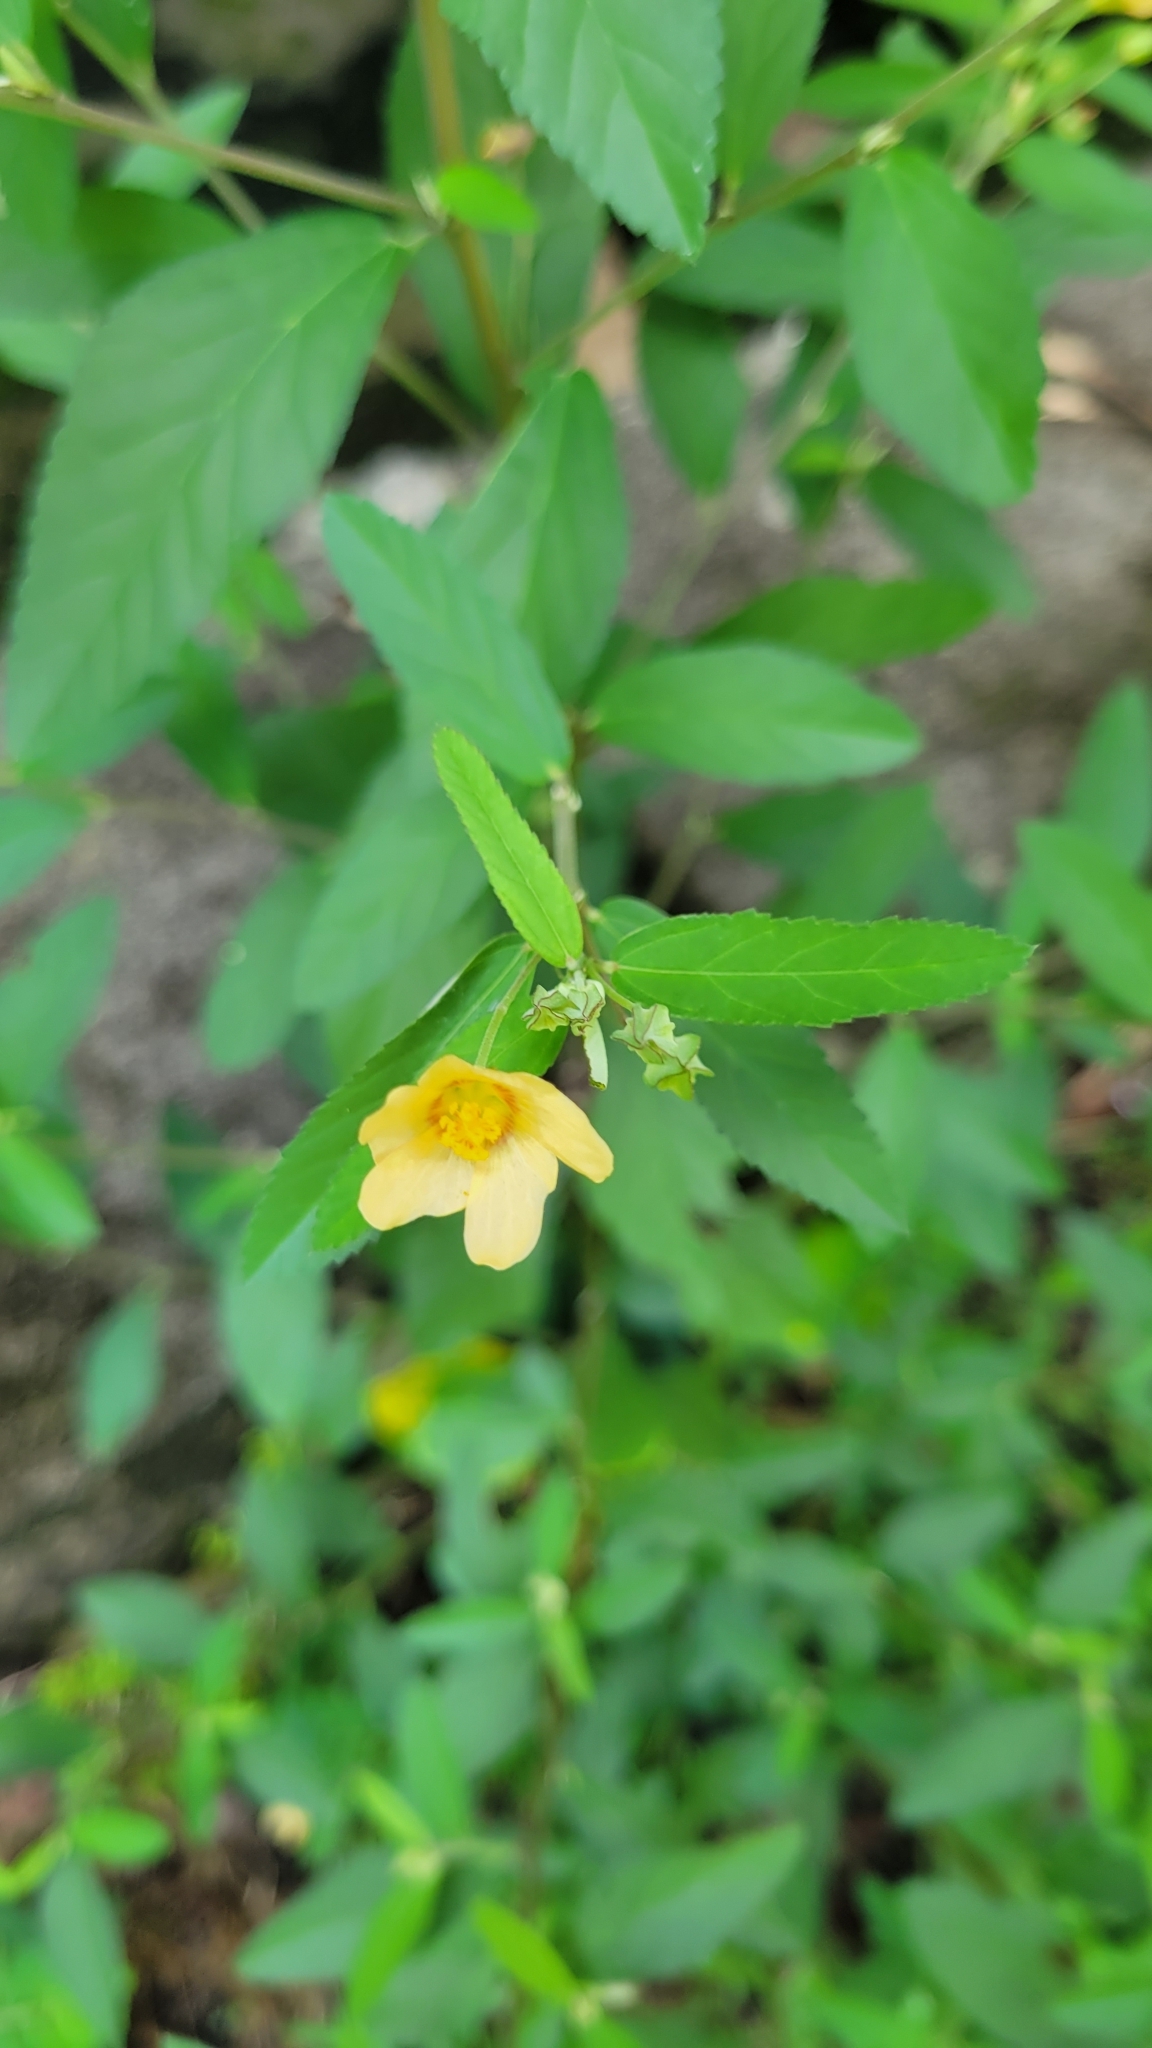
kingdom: Plantae
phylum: Tracheophyta
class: Magnoliopsida
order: Malvales
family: Malvaceae
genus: Sida
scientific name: Sida rhombifolia
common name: Queensland-hemp
